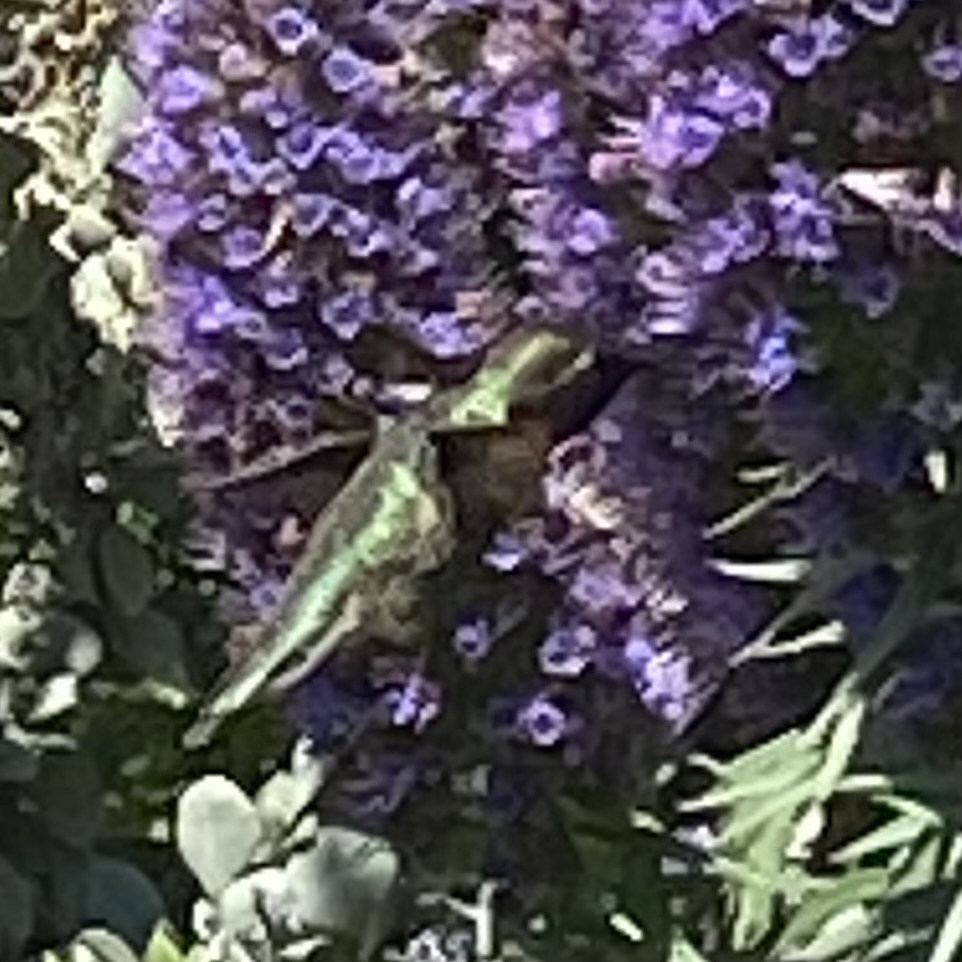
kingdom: Animalia
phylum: Chordata
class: Aves
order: Apodiformes
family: Trochilidae
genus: Calypte
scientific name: Calypte anna
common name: Anna's hummingbird
